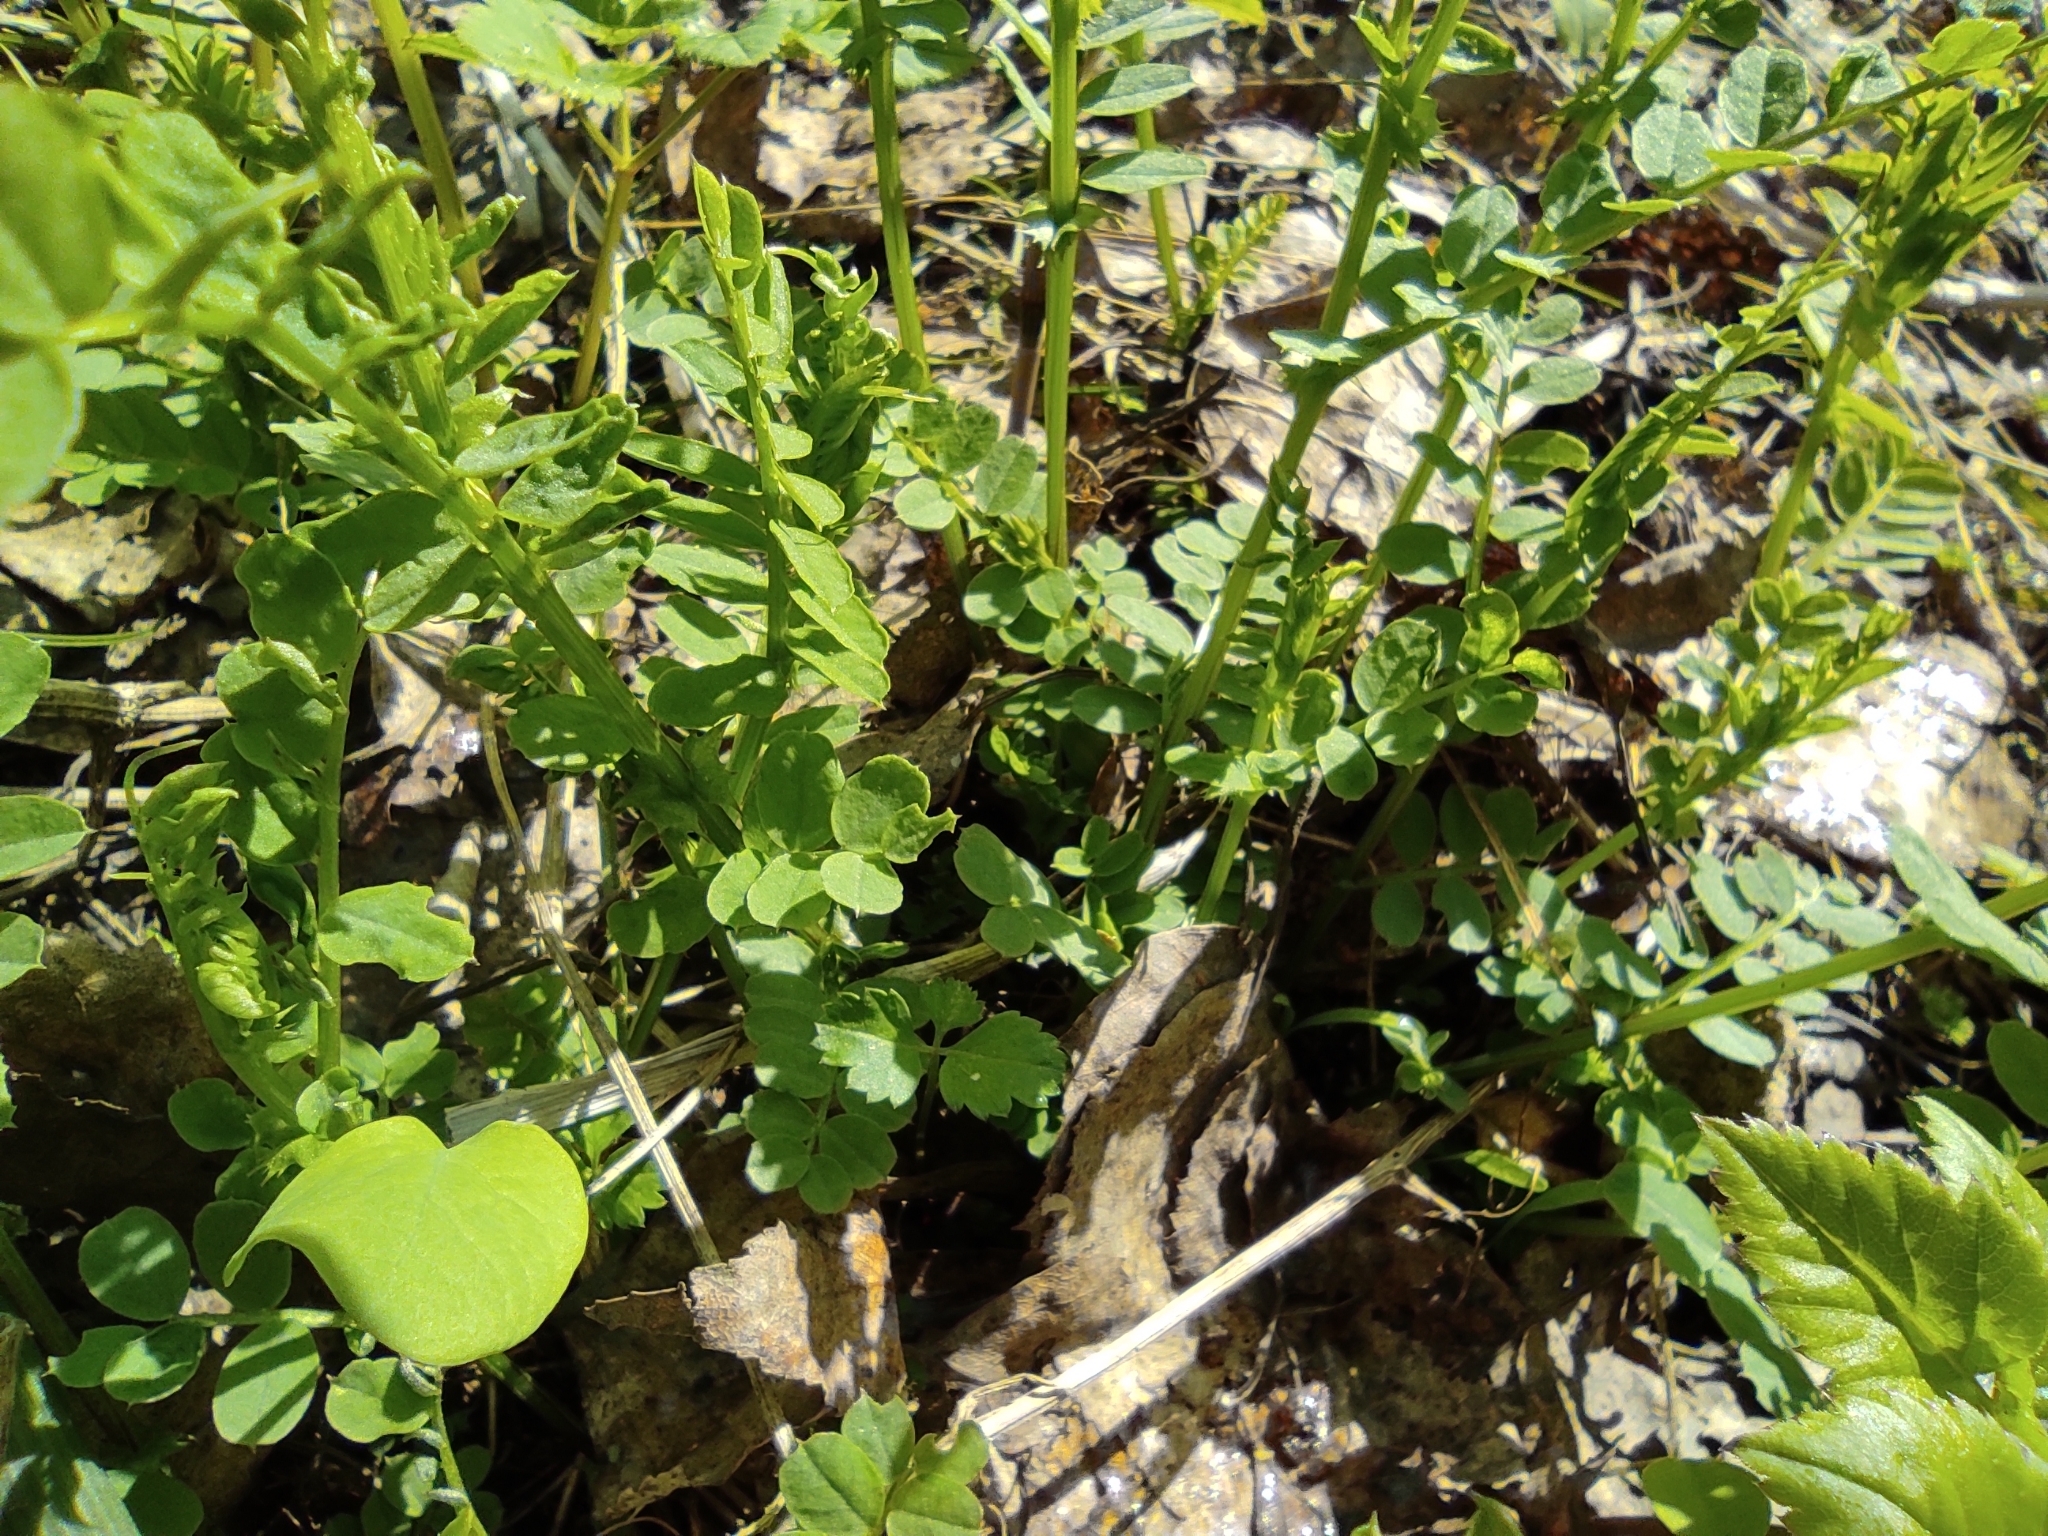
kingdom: Plantae
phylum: Tracheophyta
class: Magnoliopsida
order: Fabales
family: Fabaceae
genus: Vicia
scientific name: Vicia sylvatica
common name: Wood vetch
